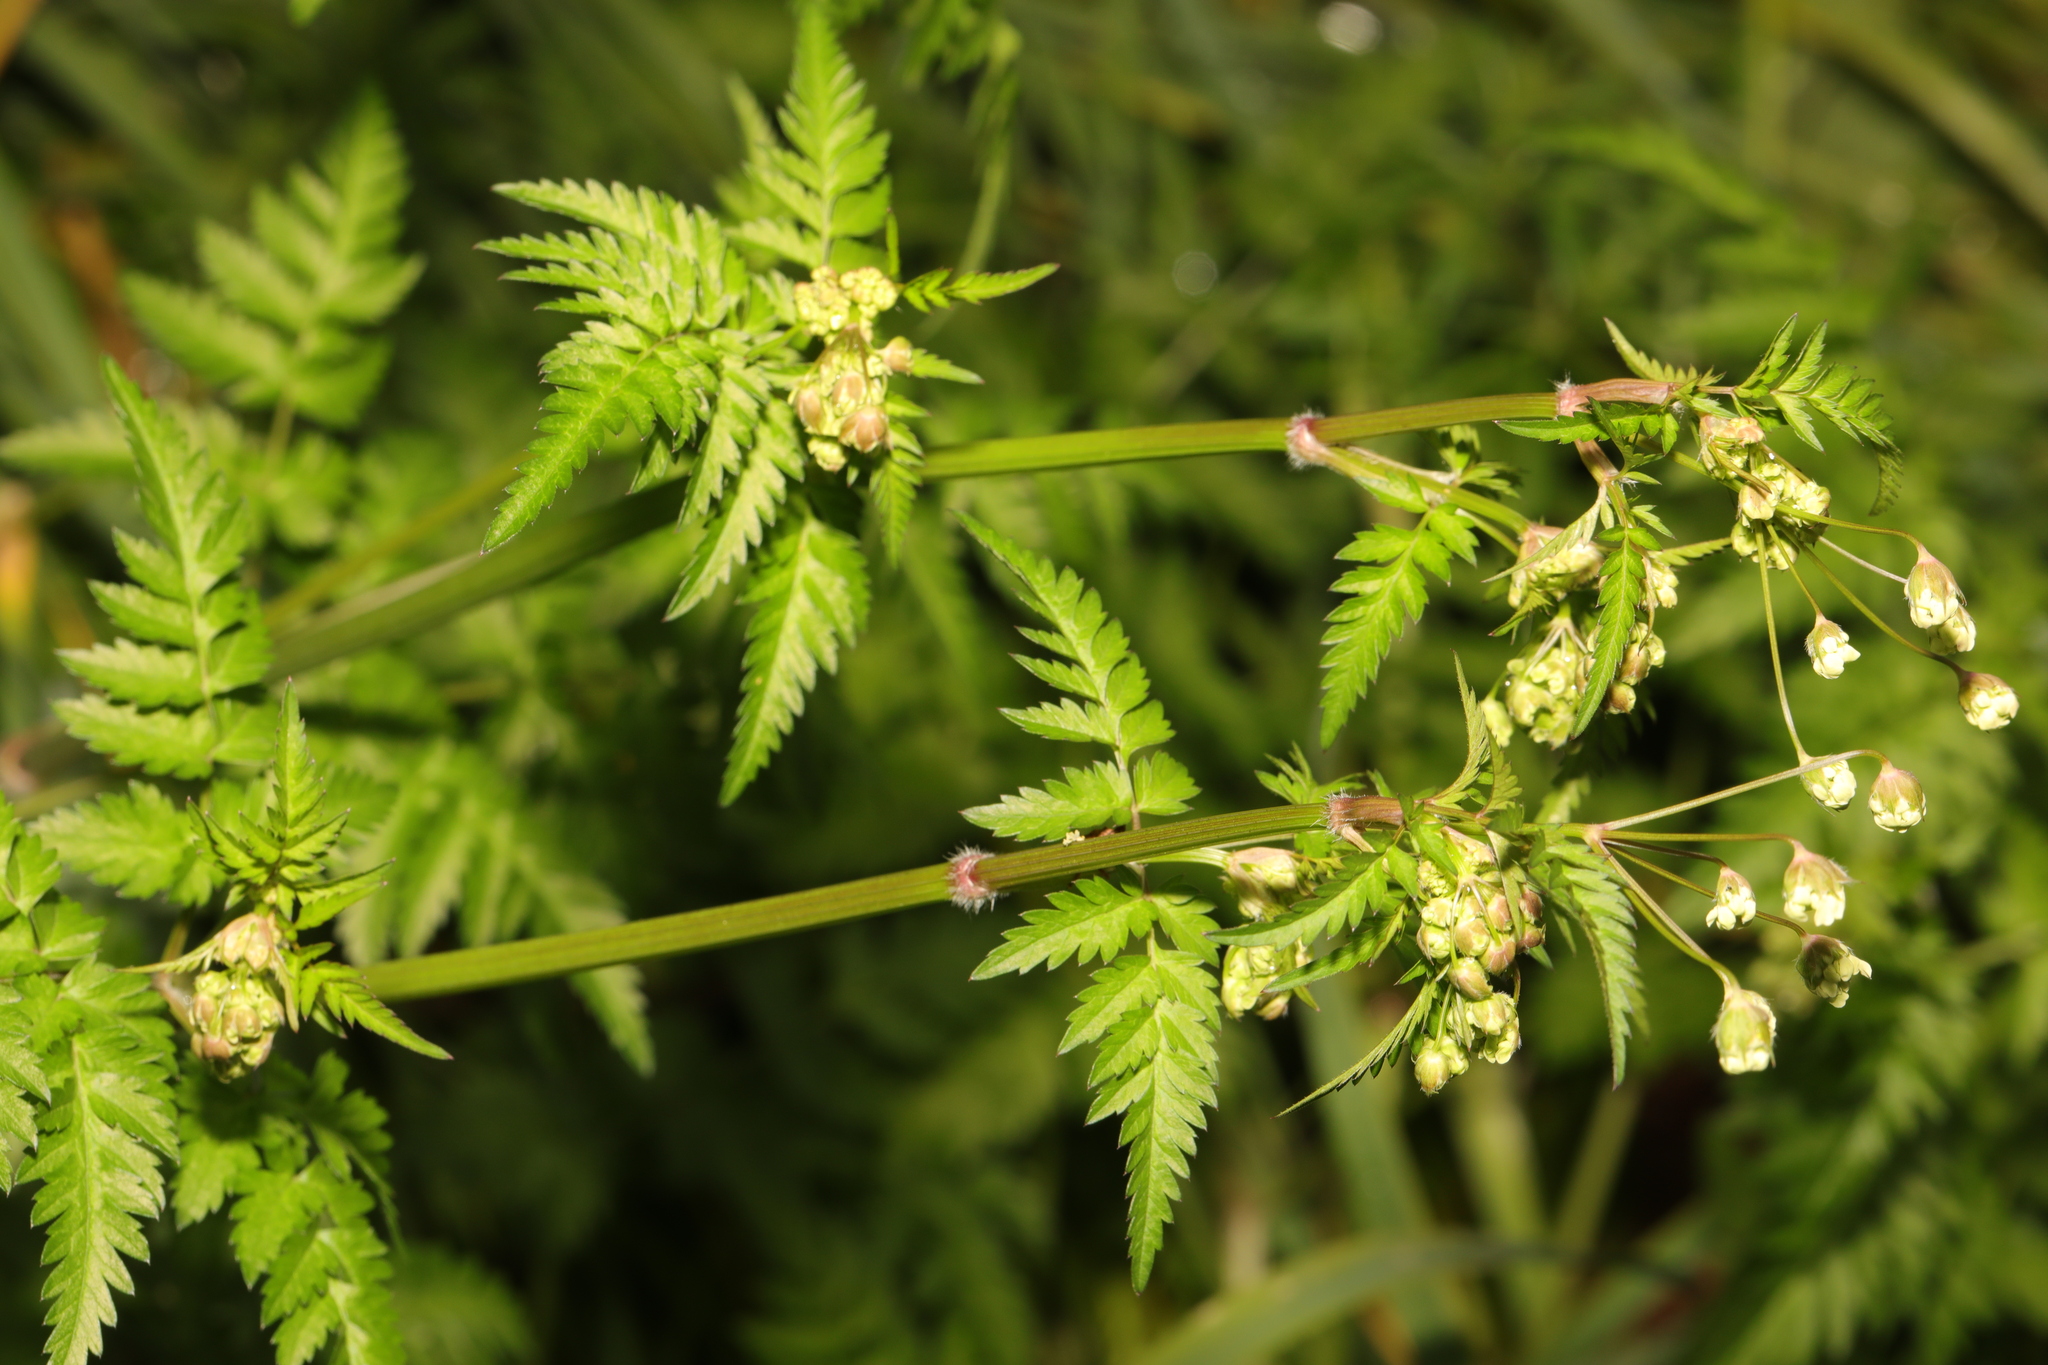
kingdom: Plantae
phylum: Tracheophyta
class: Magnoliopsida
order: Apiales
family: Apiaceae
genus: Anthriscus
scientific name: Anthriscus sylvestris
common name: Cow parsley
